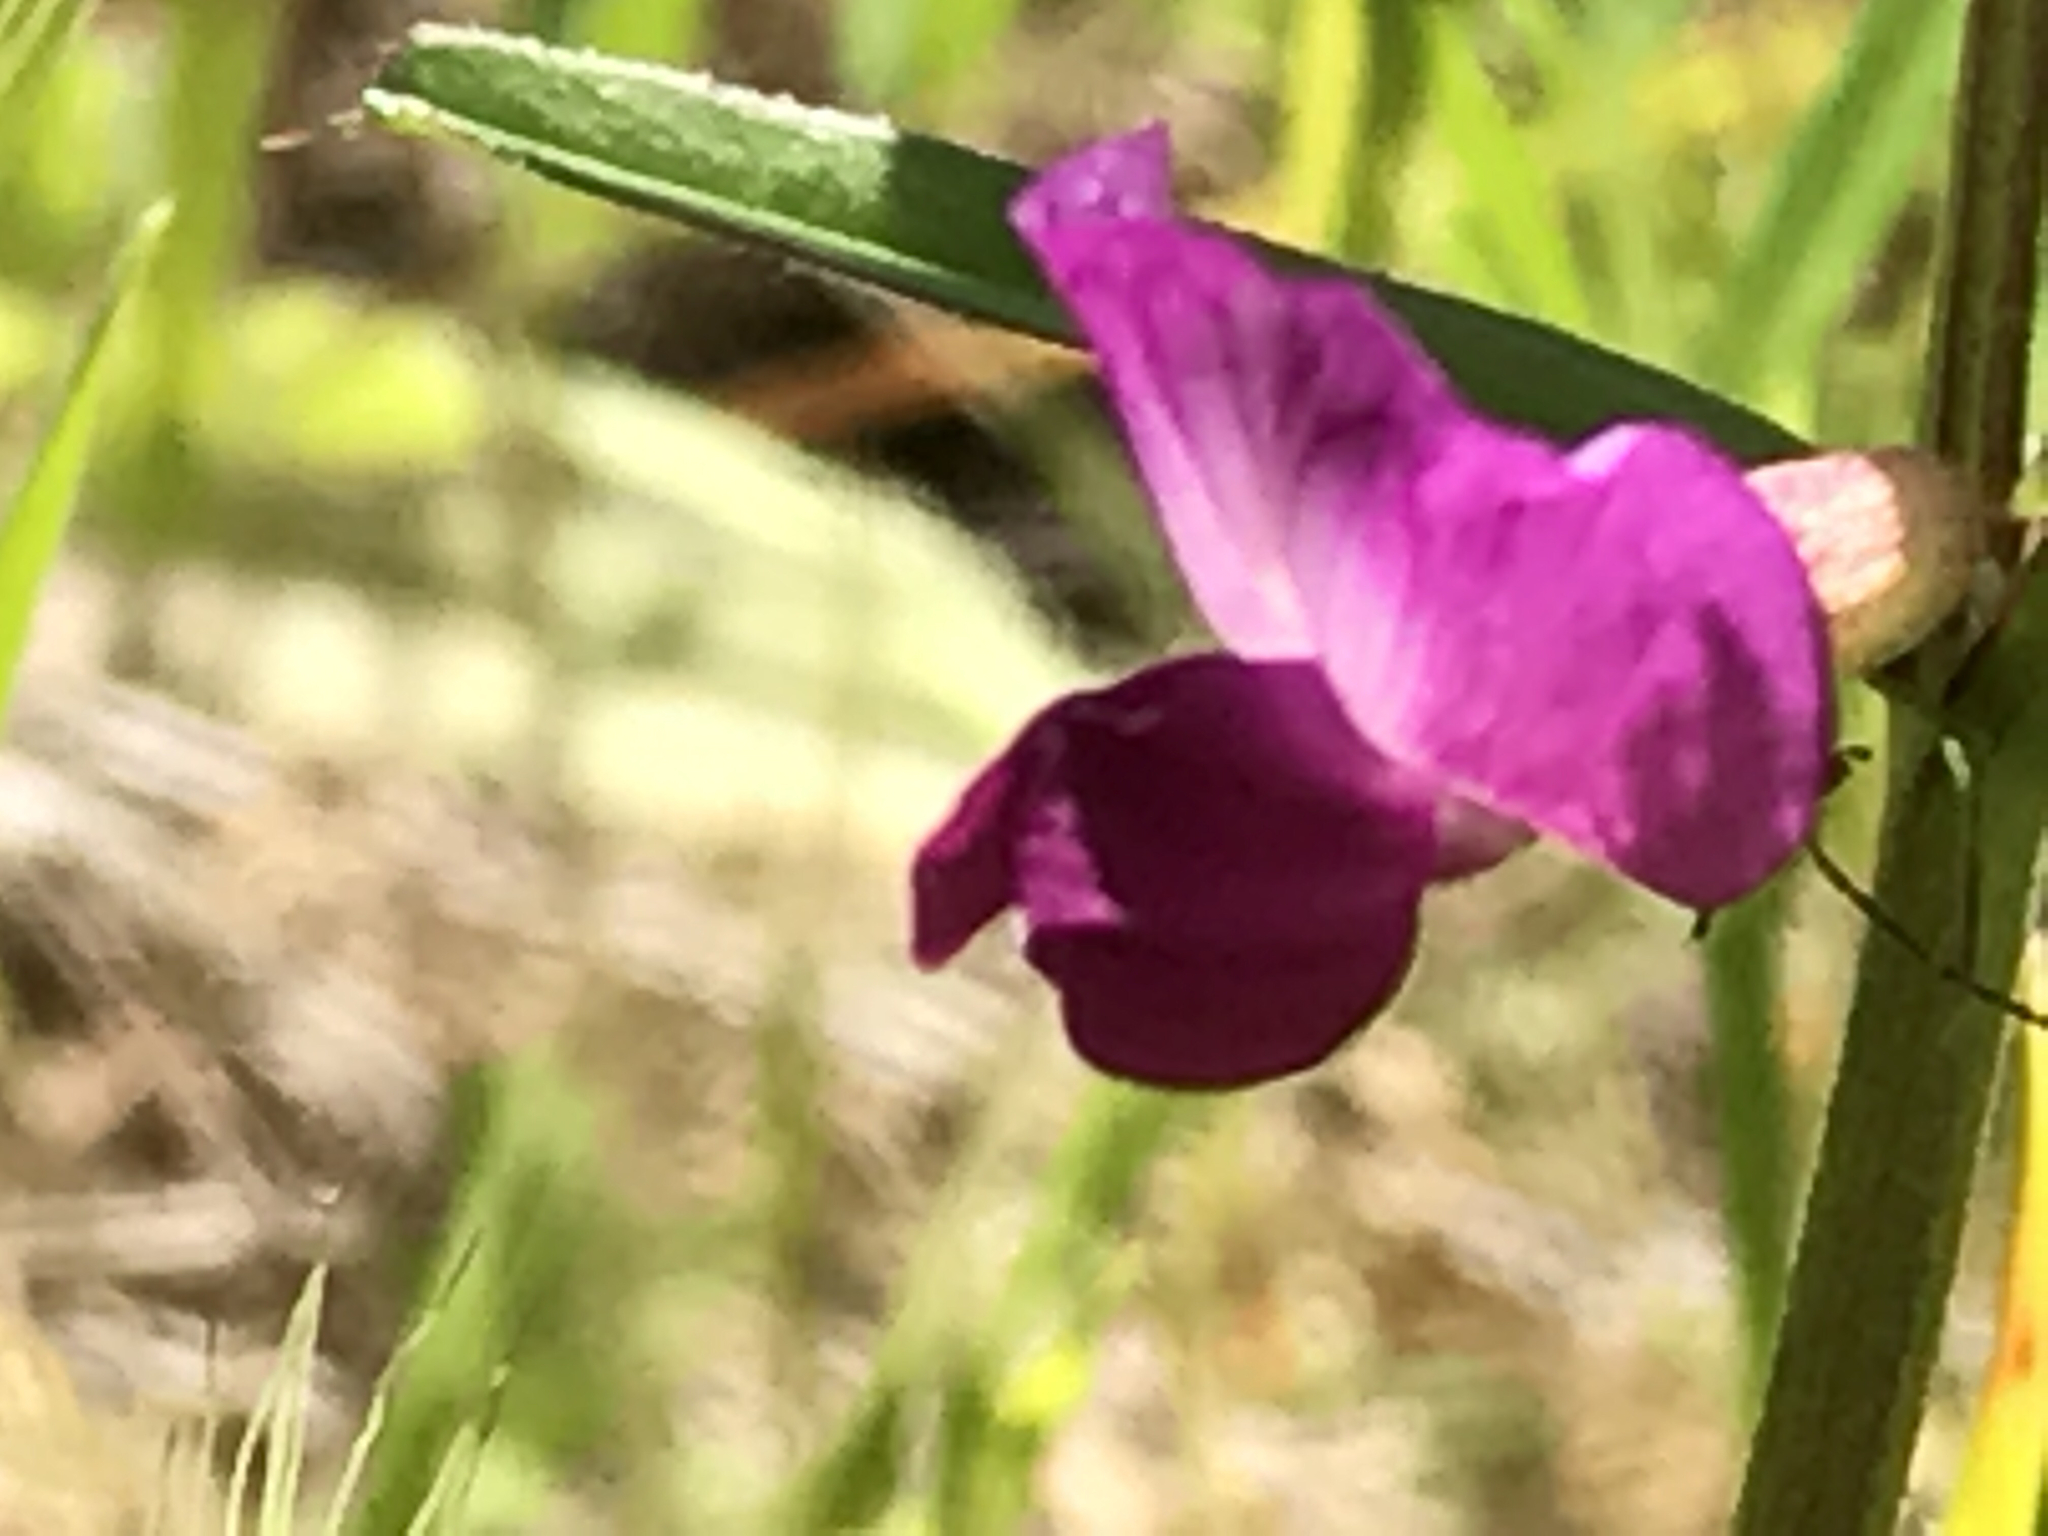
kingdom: Plantae
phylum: Tracheophyta
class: Magnoliopsida
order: Fabales
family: Fabaceae
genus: Vicia
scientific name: Vicia sativa
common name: Garden vetch
